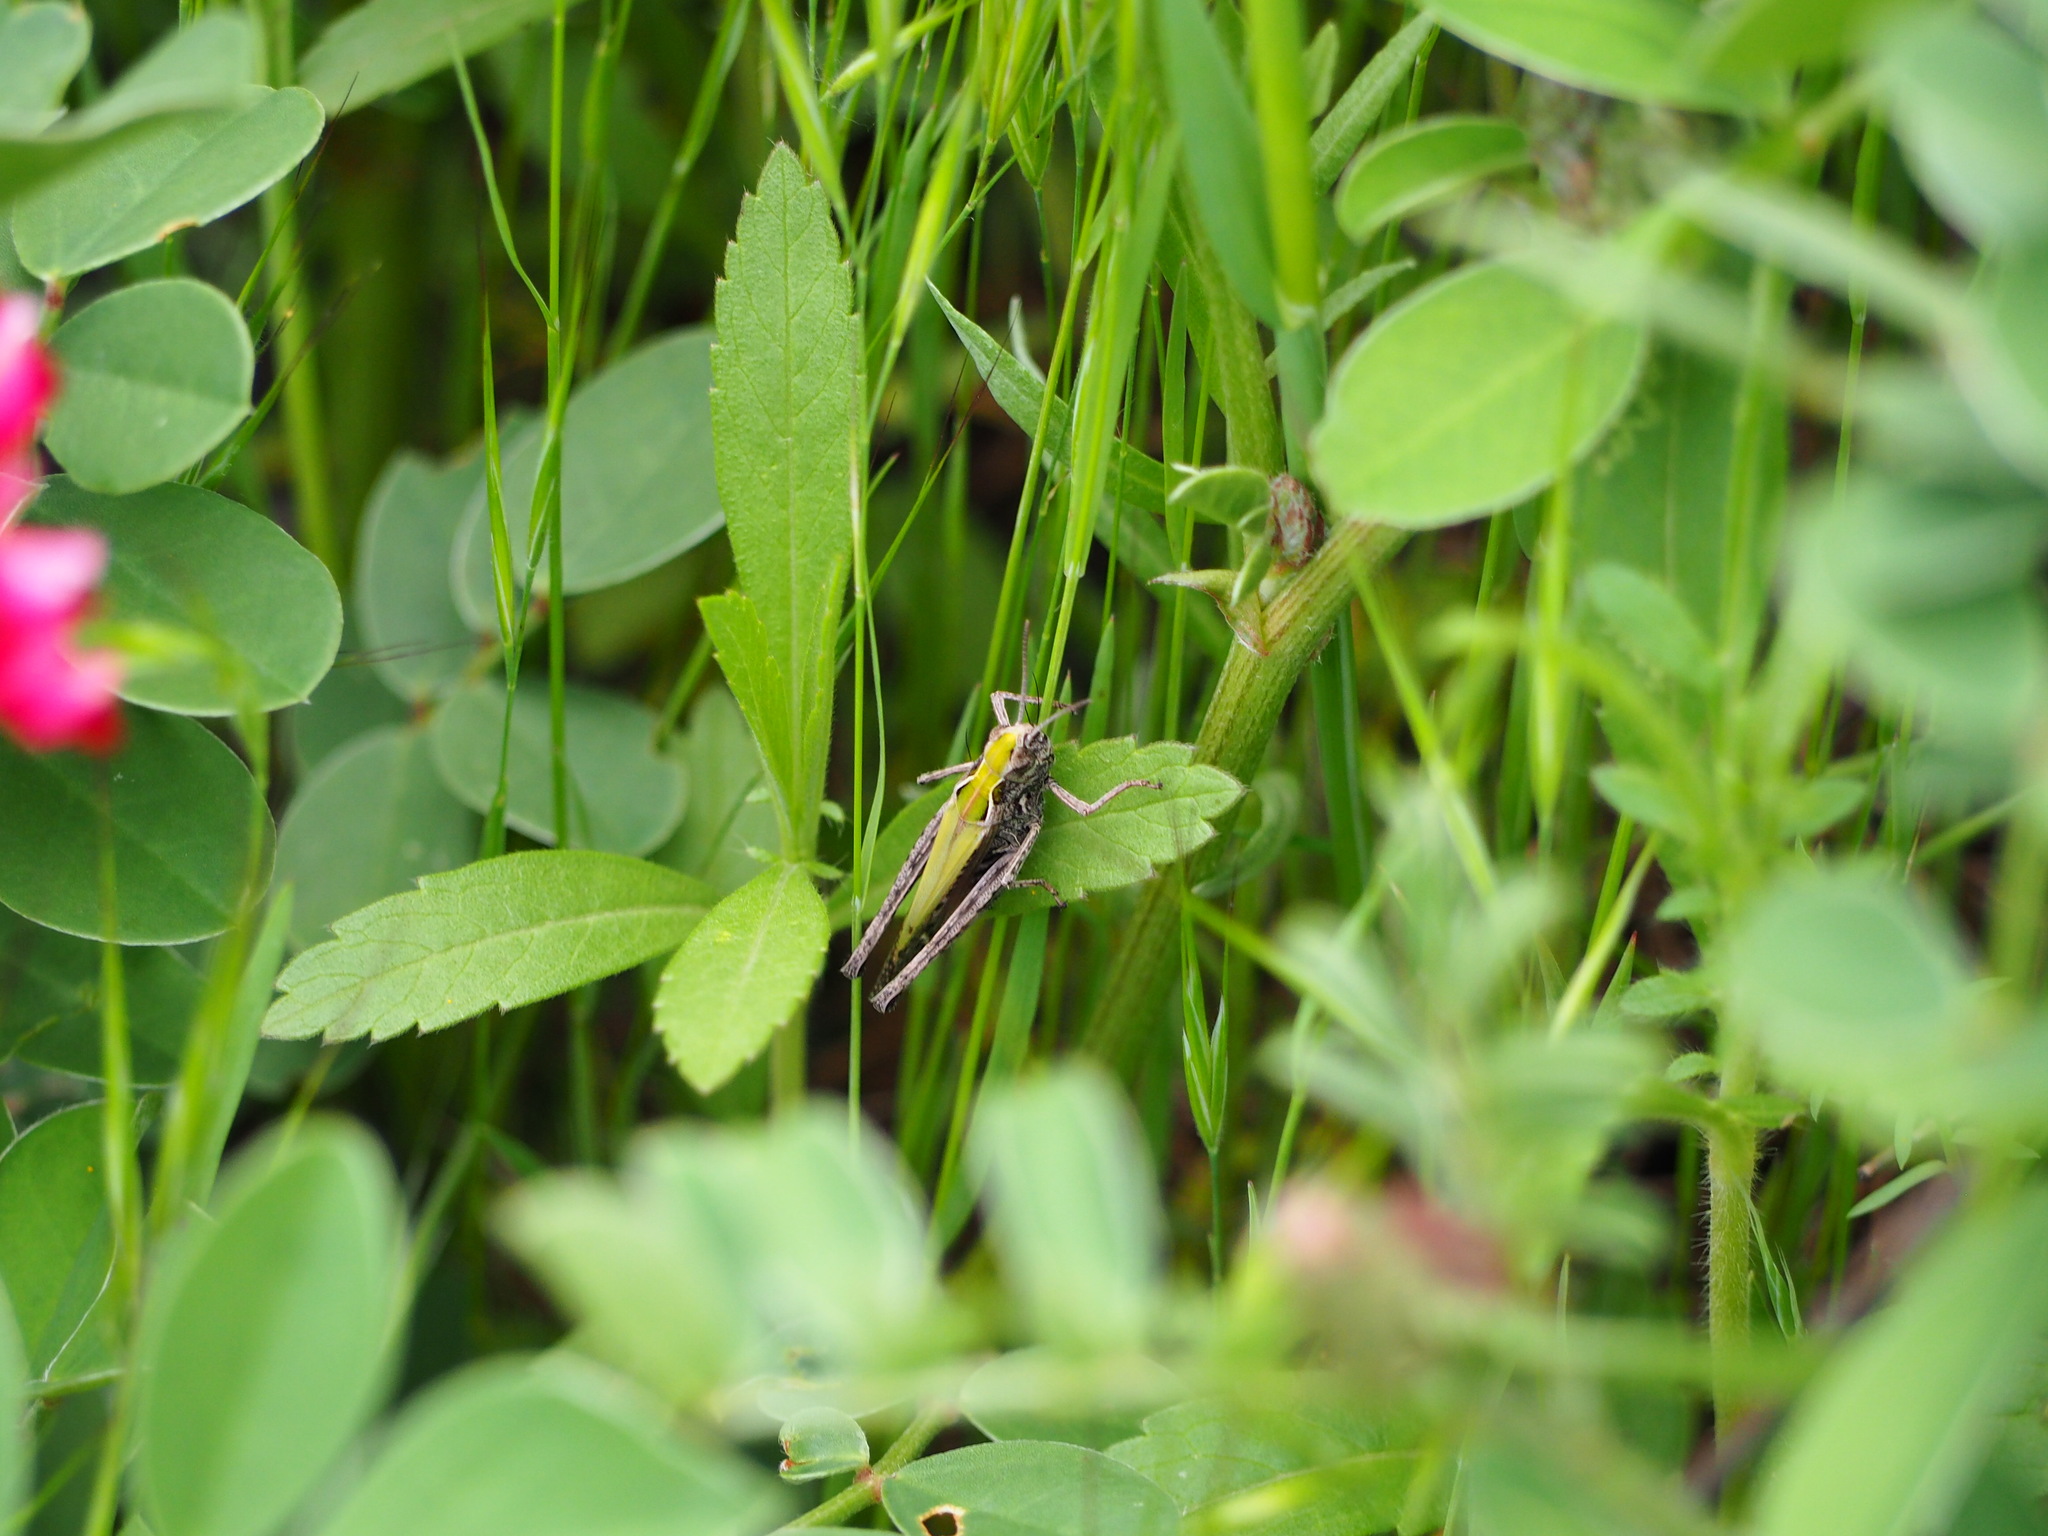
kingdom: Animalia
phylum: Arthropoda
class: Insecta
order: Orthoptera
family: Acrididae
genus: Omocestus
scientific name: Omocestus rufipes
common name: Woodland grasshopper
